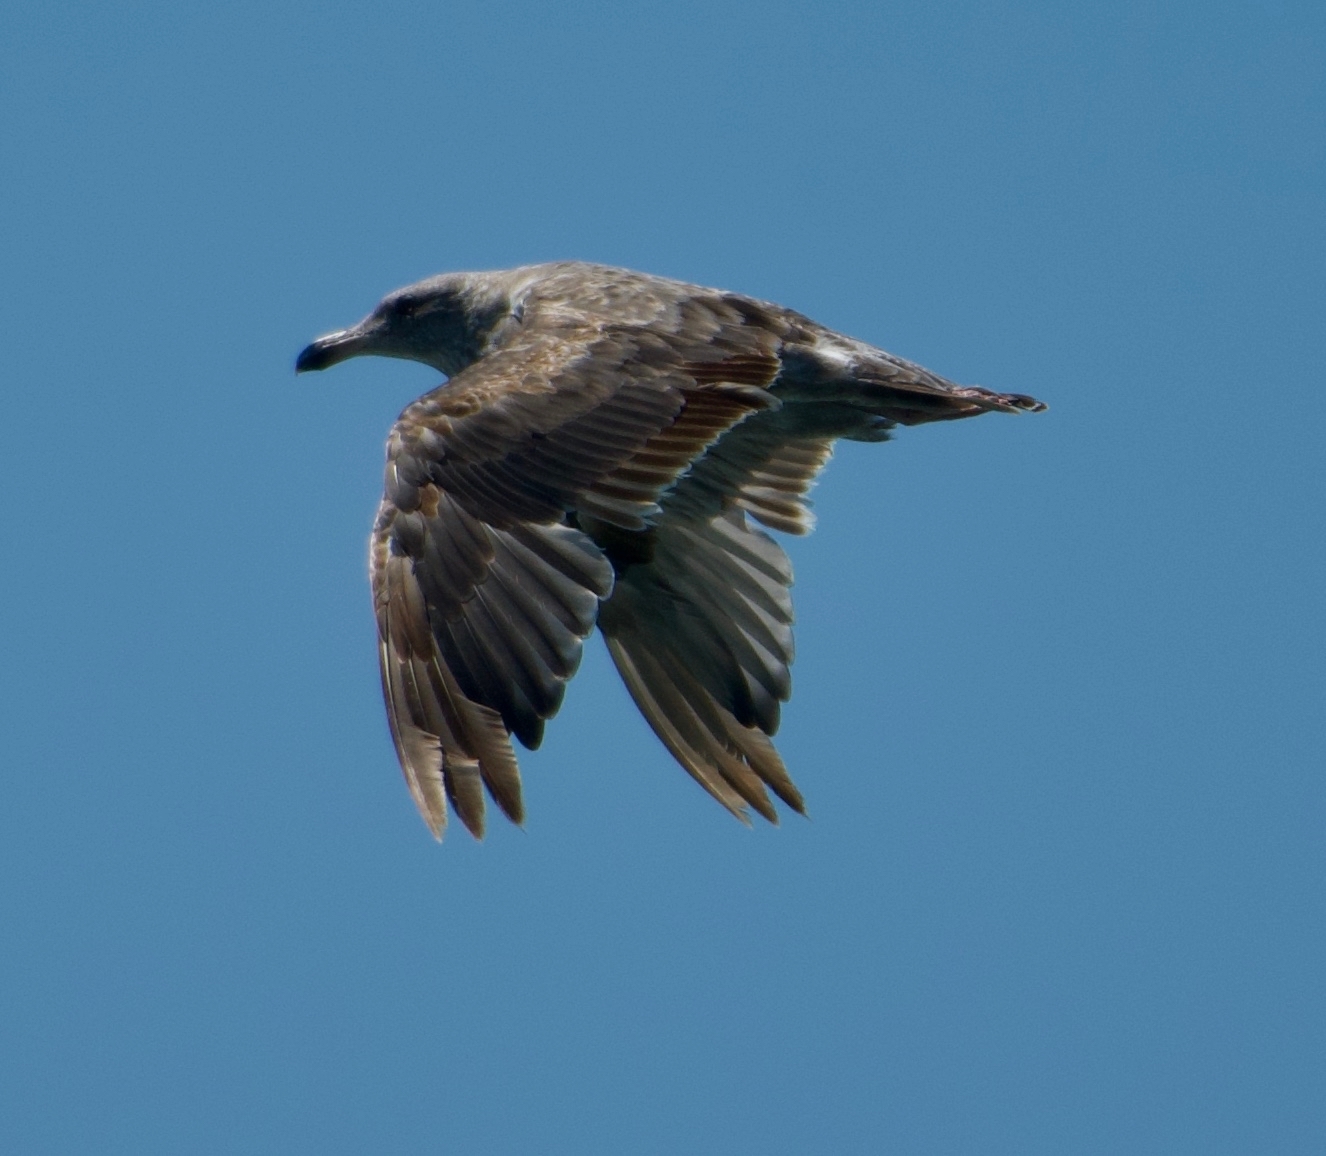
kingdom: Animalia
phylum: Chordata
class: Aves
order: Charadriiformes
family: Laridae
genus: Larus
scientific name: Larus occidentalis
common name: Western gull
